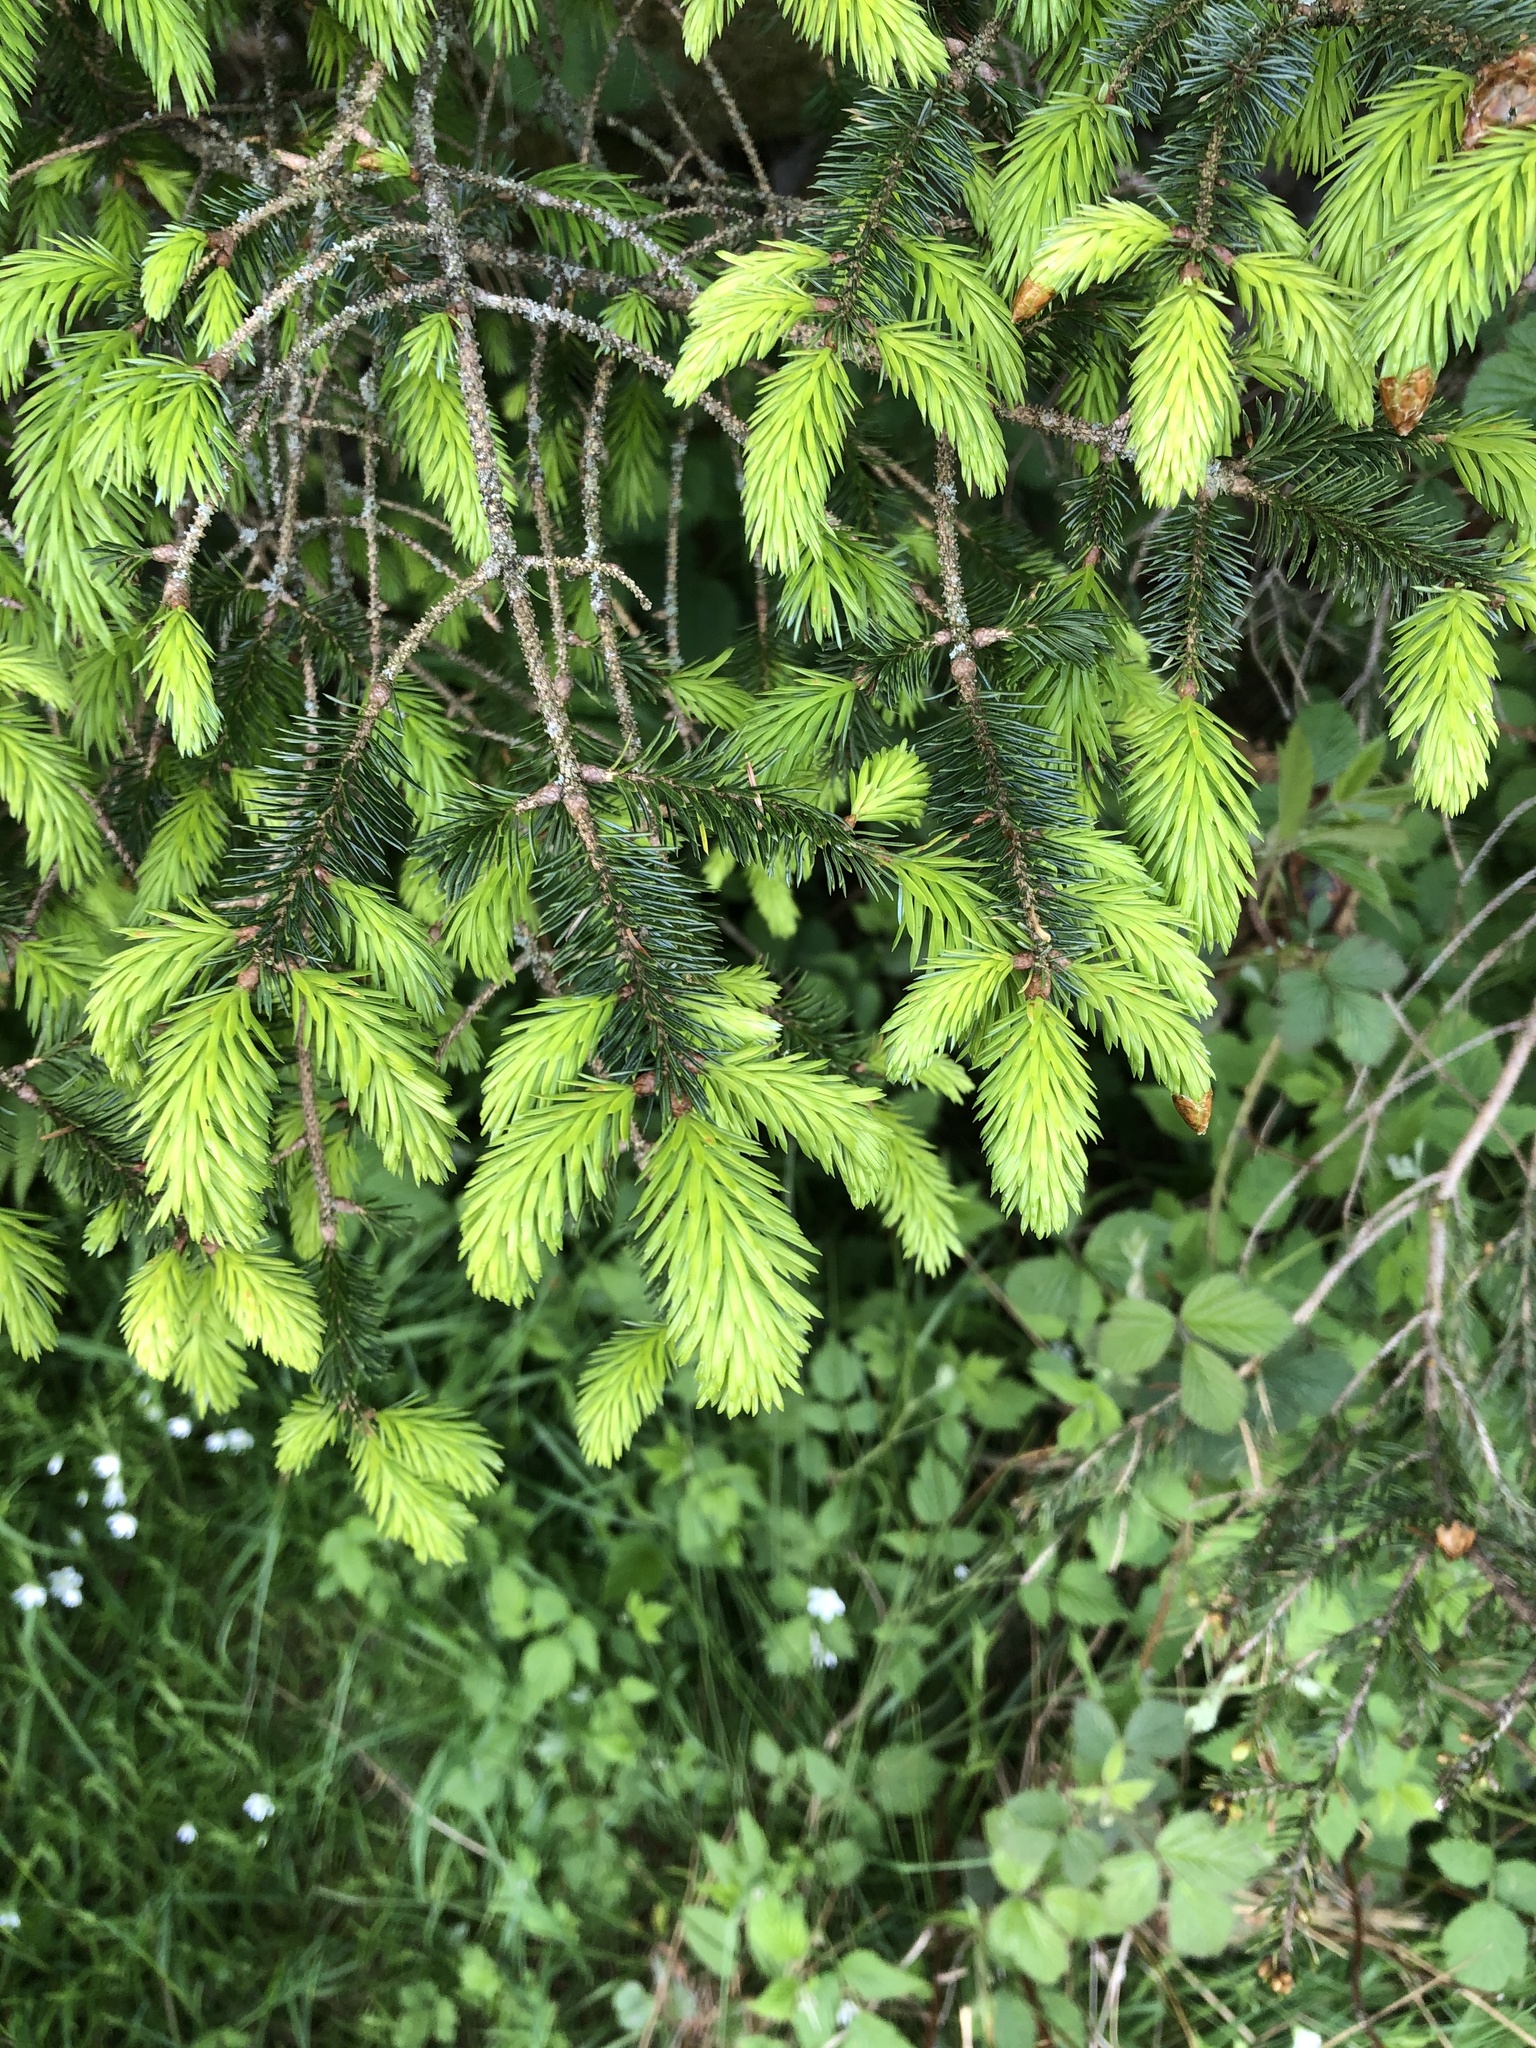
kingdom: Plantae
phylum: Tracheophyta
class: Pinopsida
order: Pinales
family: Pinaceae
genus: Picea
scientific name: Picea abies
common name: Norway spruce
